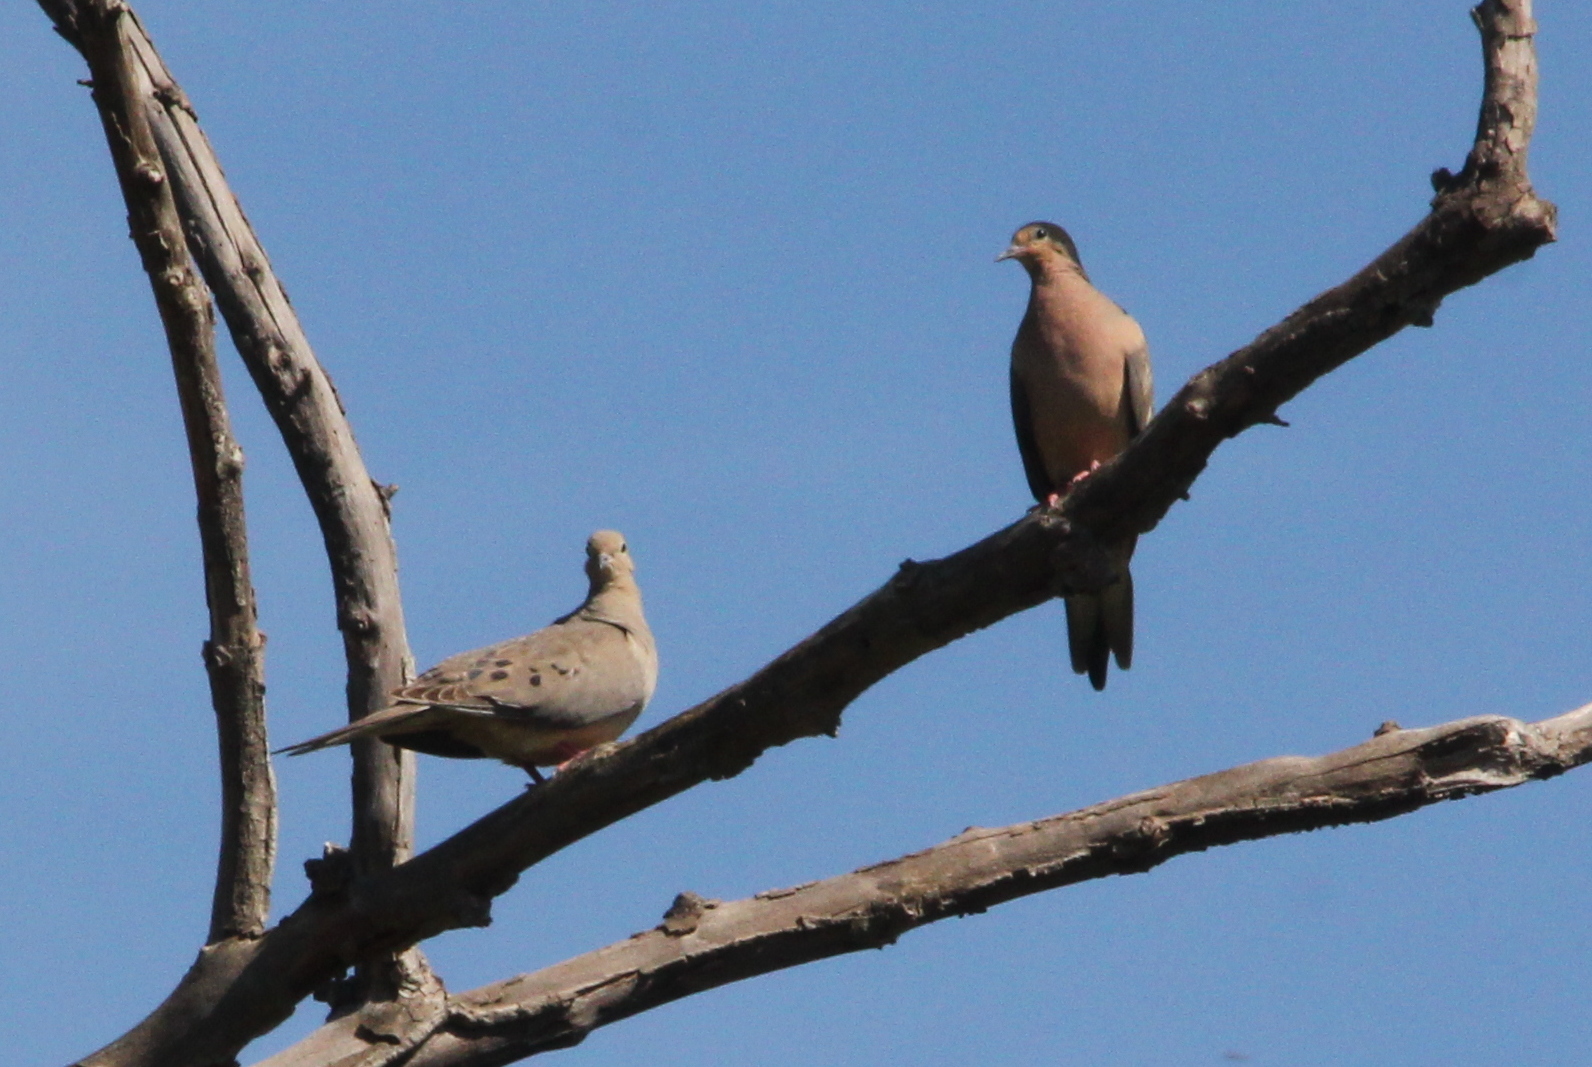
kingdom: Animalia
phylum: Chordata
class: Aves
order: Columbiformes
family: Columbidae
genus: Zenaida
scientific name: Zenaida macroura
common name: Mourning dove
